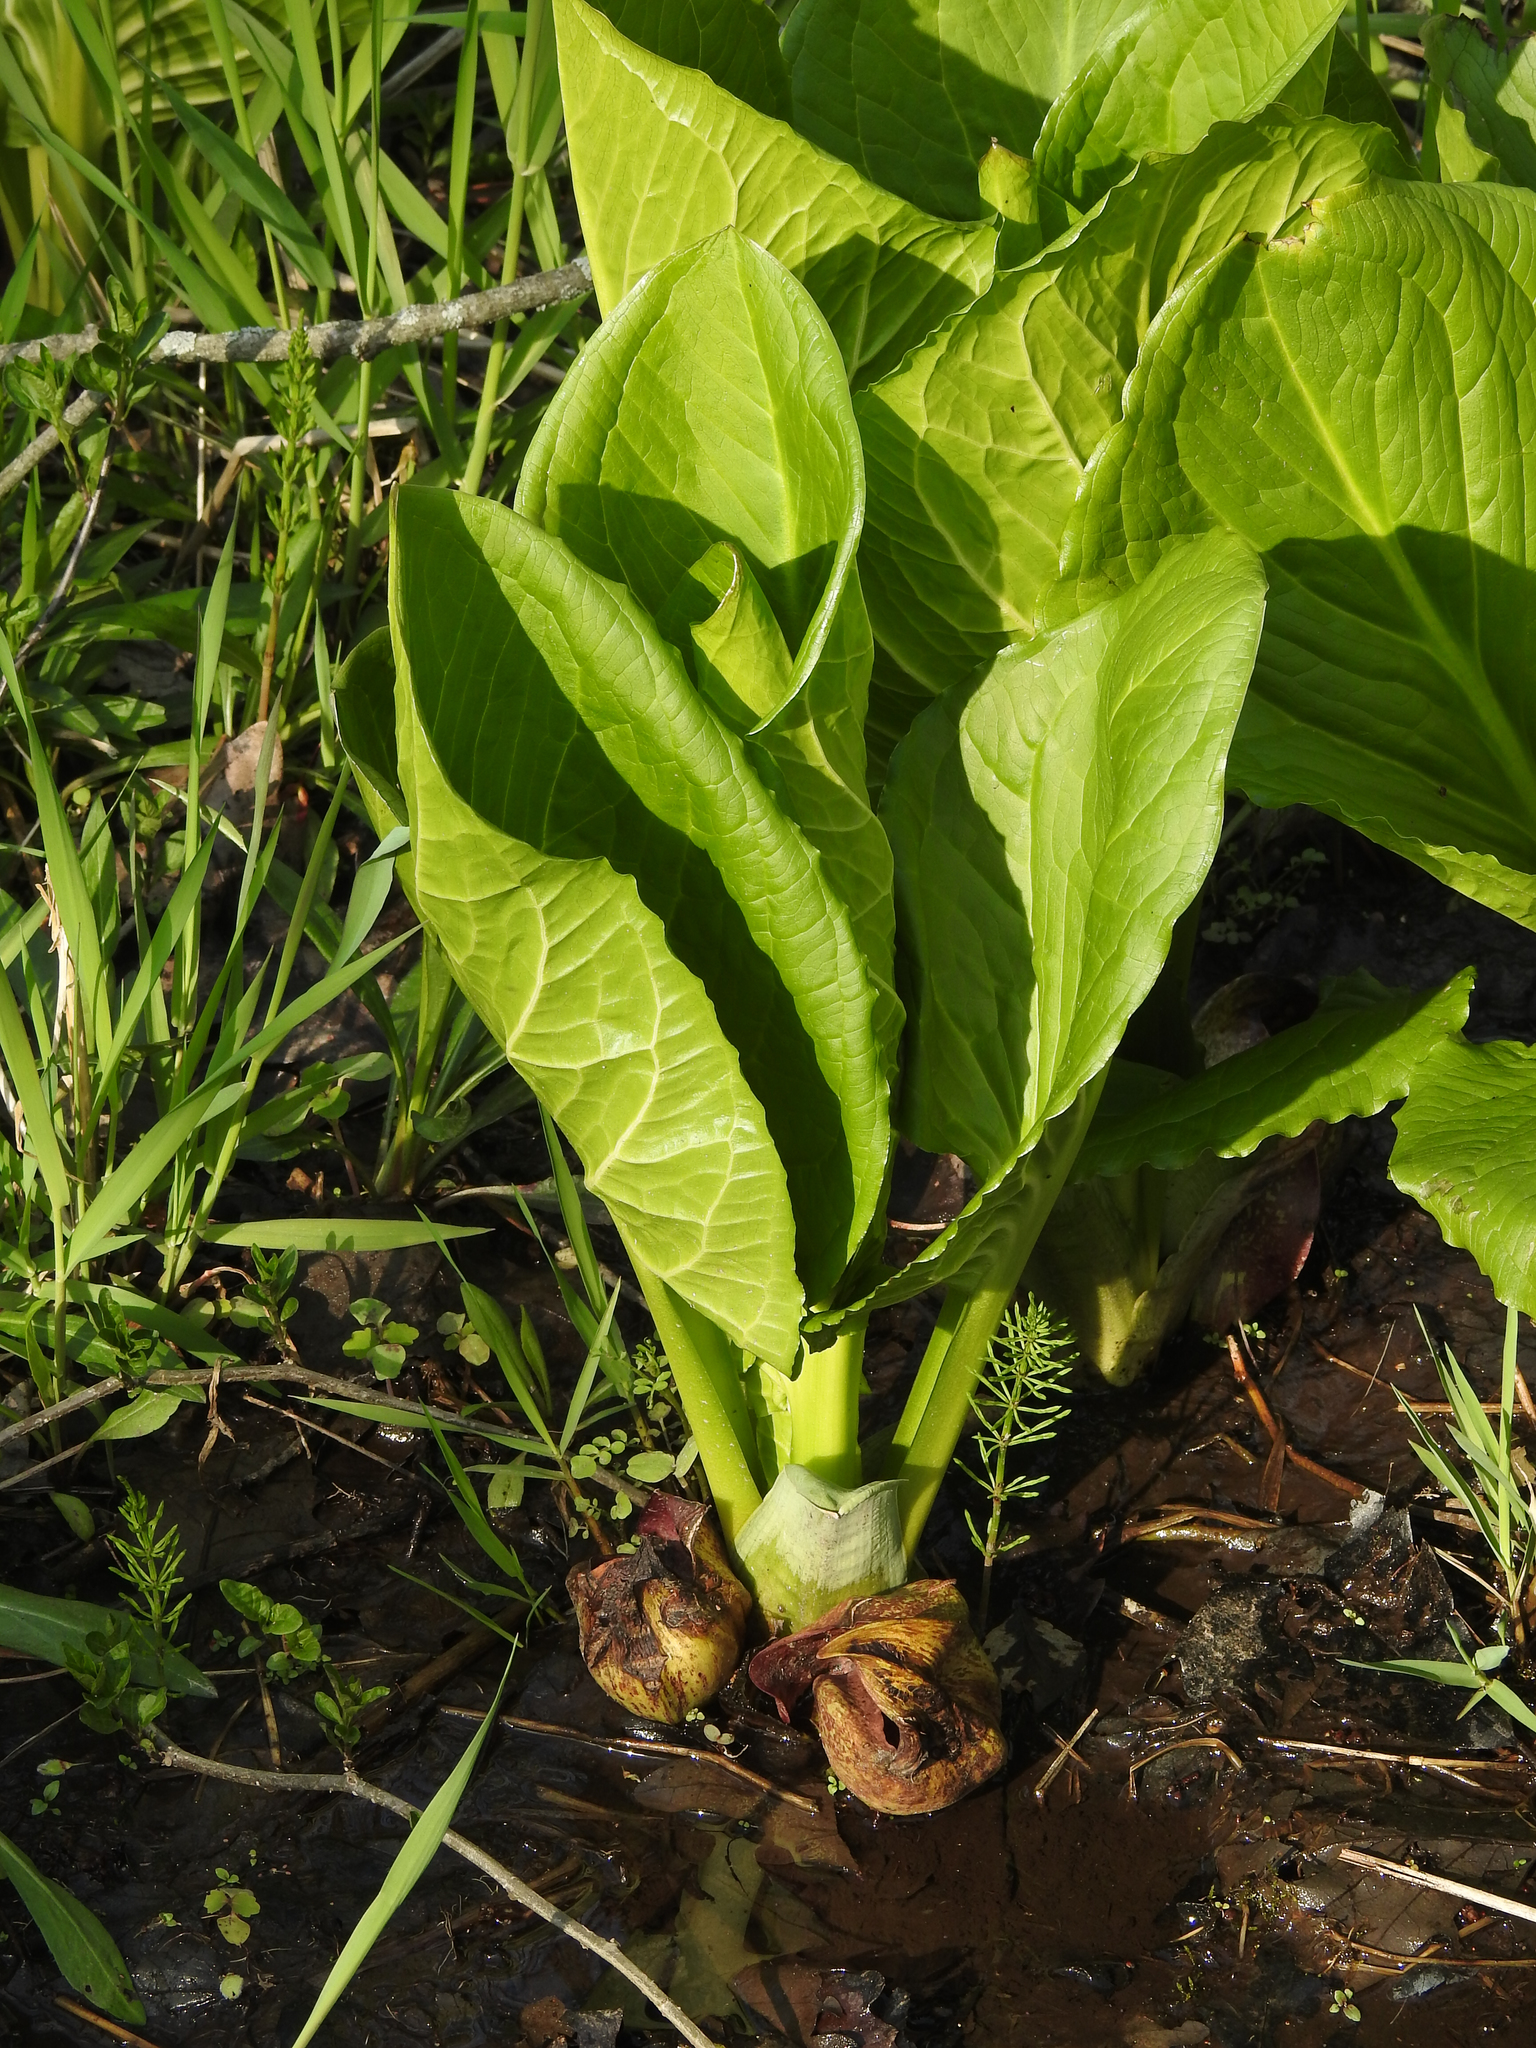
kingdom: Plantae
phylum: Tracheophyta
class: Liliopsida
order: Alismatales
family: Araceae
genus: Symplocarpus
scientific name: Symplocarpus foetidus
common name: Eastern skunk cabbage
